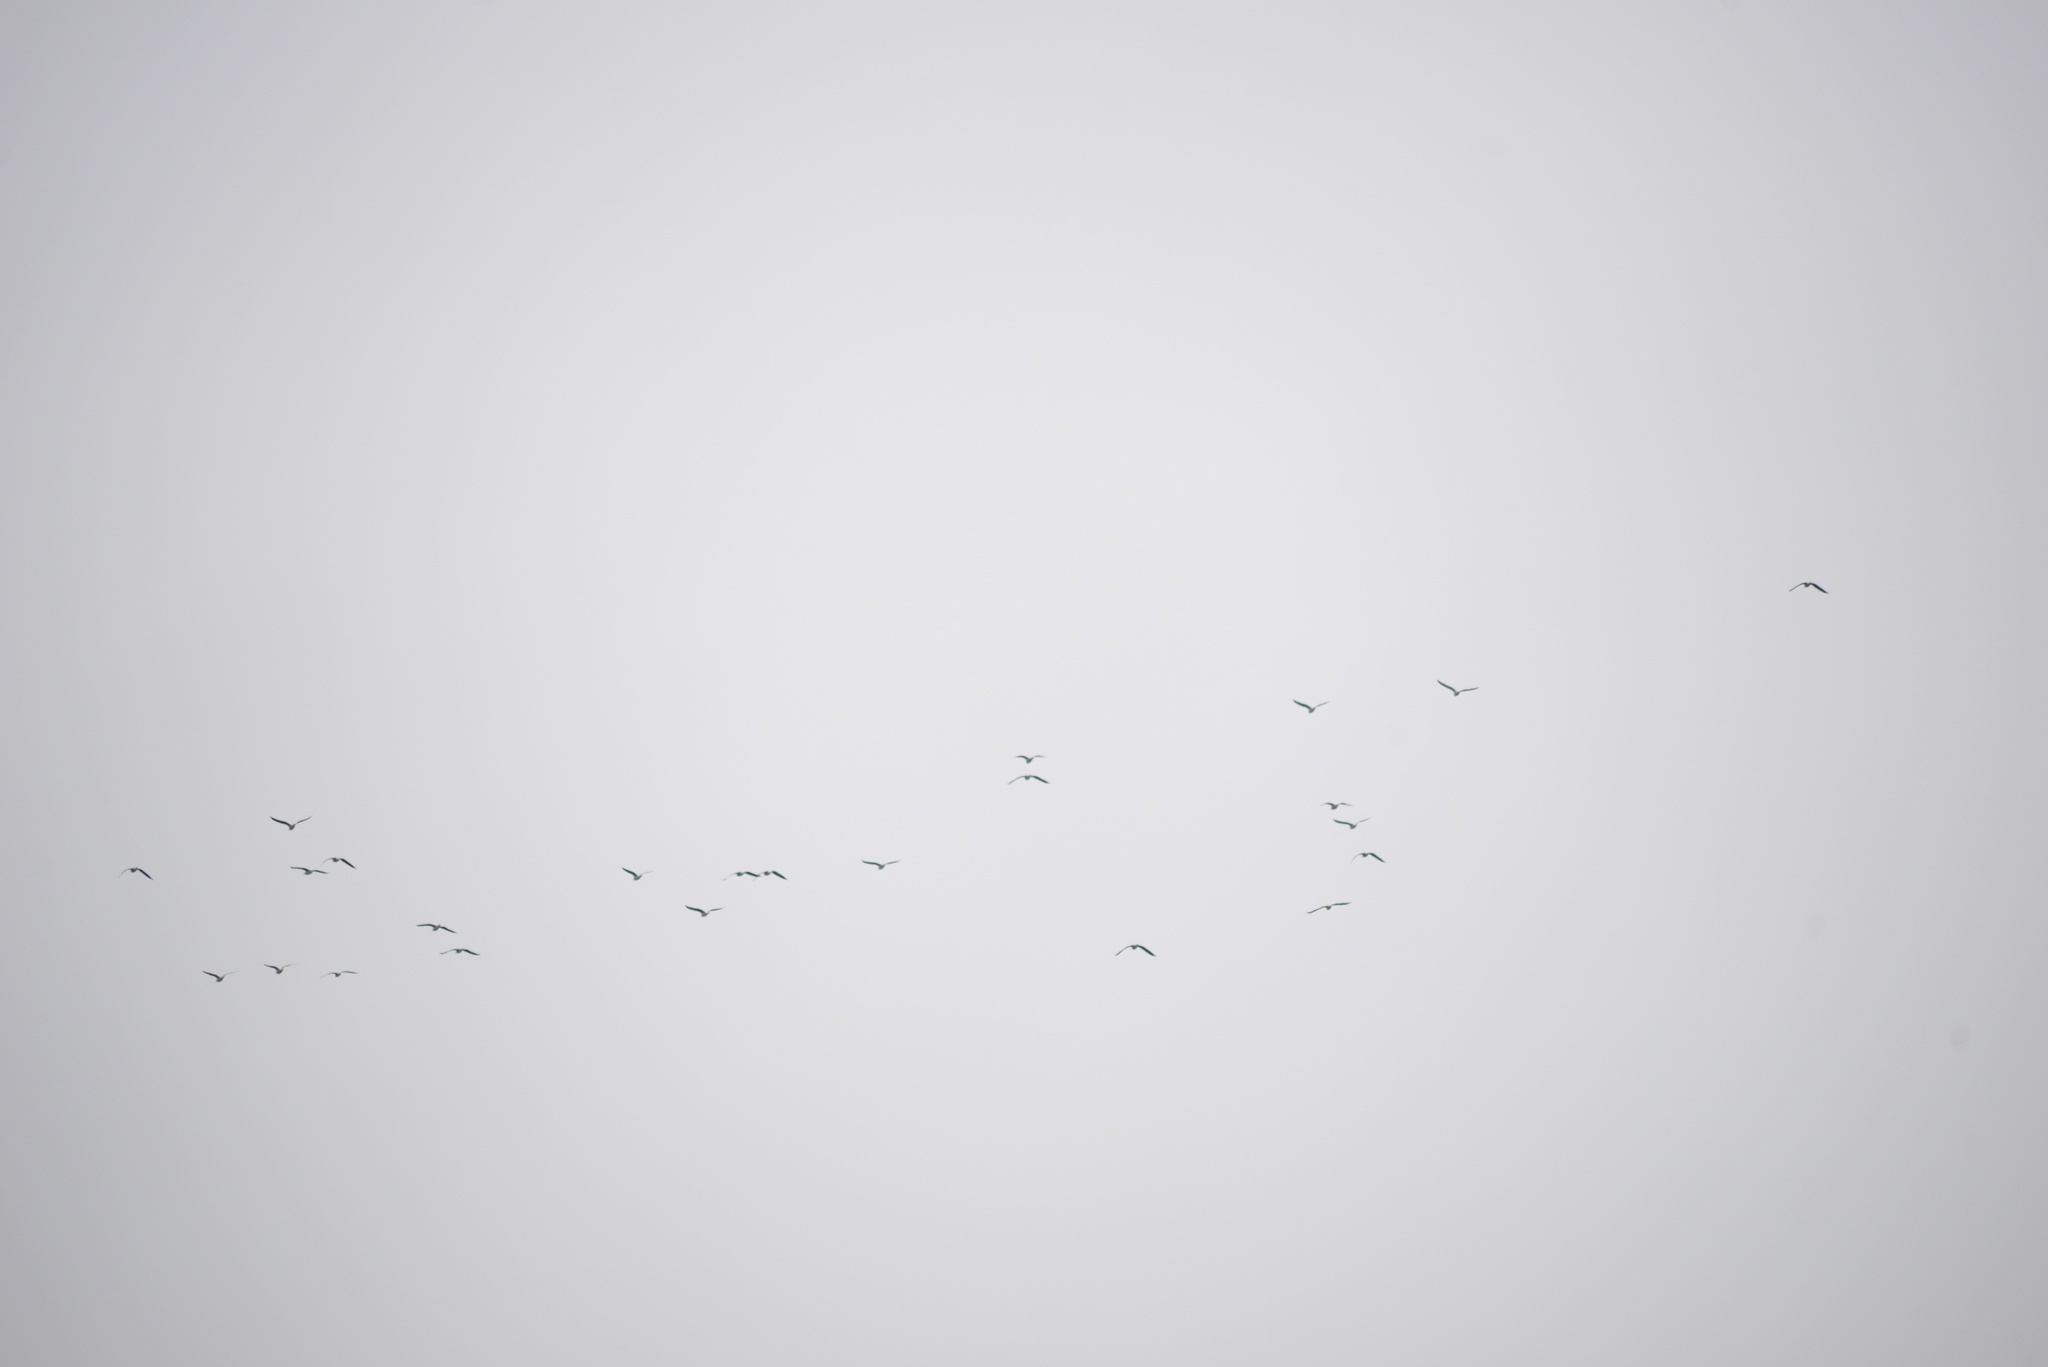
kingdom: Animalia
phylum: Chordata
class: Aves
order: Charadriiformes
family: Laridae
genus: Chroicocephalus
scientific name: Chroicocephalus novaehollandiae
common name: Silver gull
